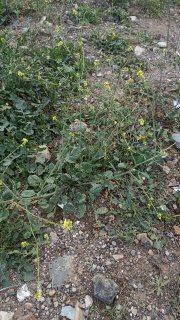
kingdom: Plantae
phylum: Tracheophyta
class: Magnoliopsida
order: Brassicales
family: Brassicaceae
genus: Rapistrum
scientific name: Rapistrum rugosum
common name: Annual bastardcabbage
